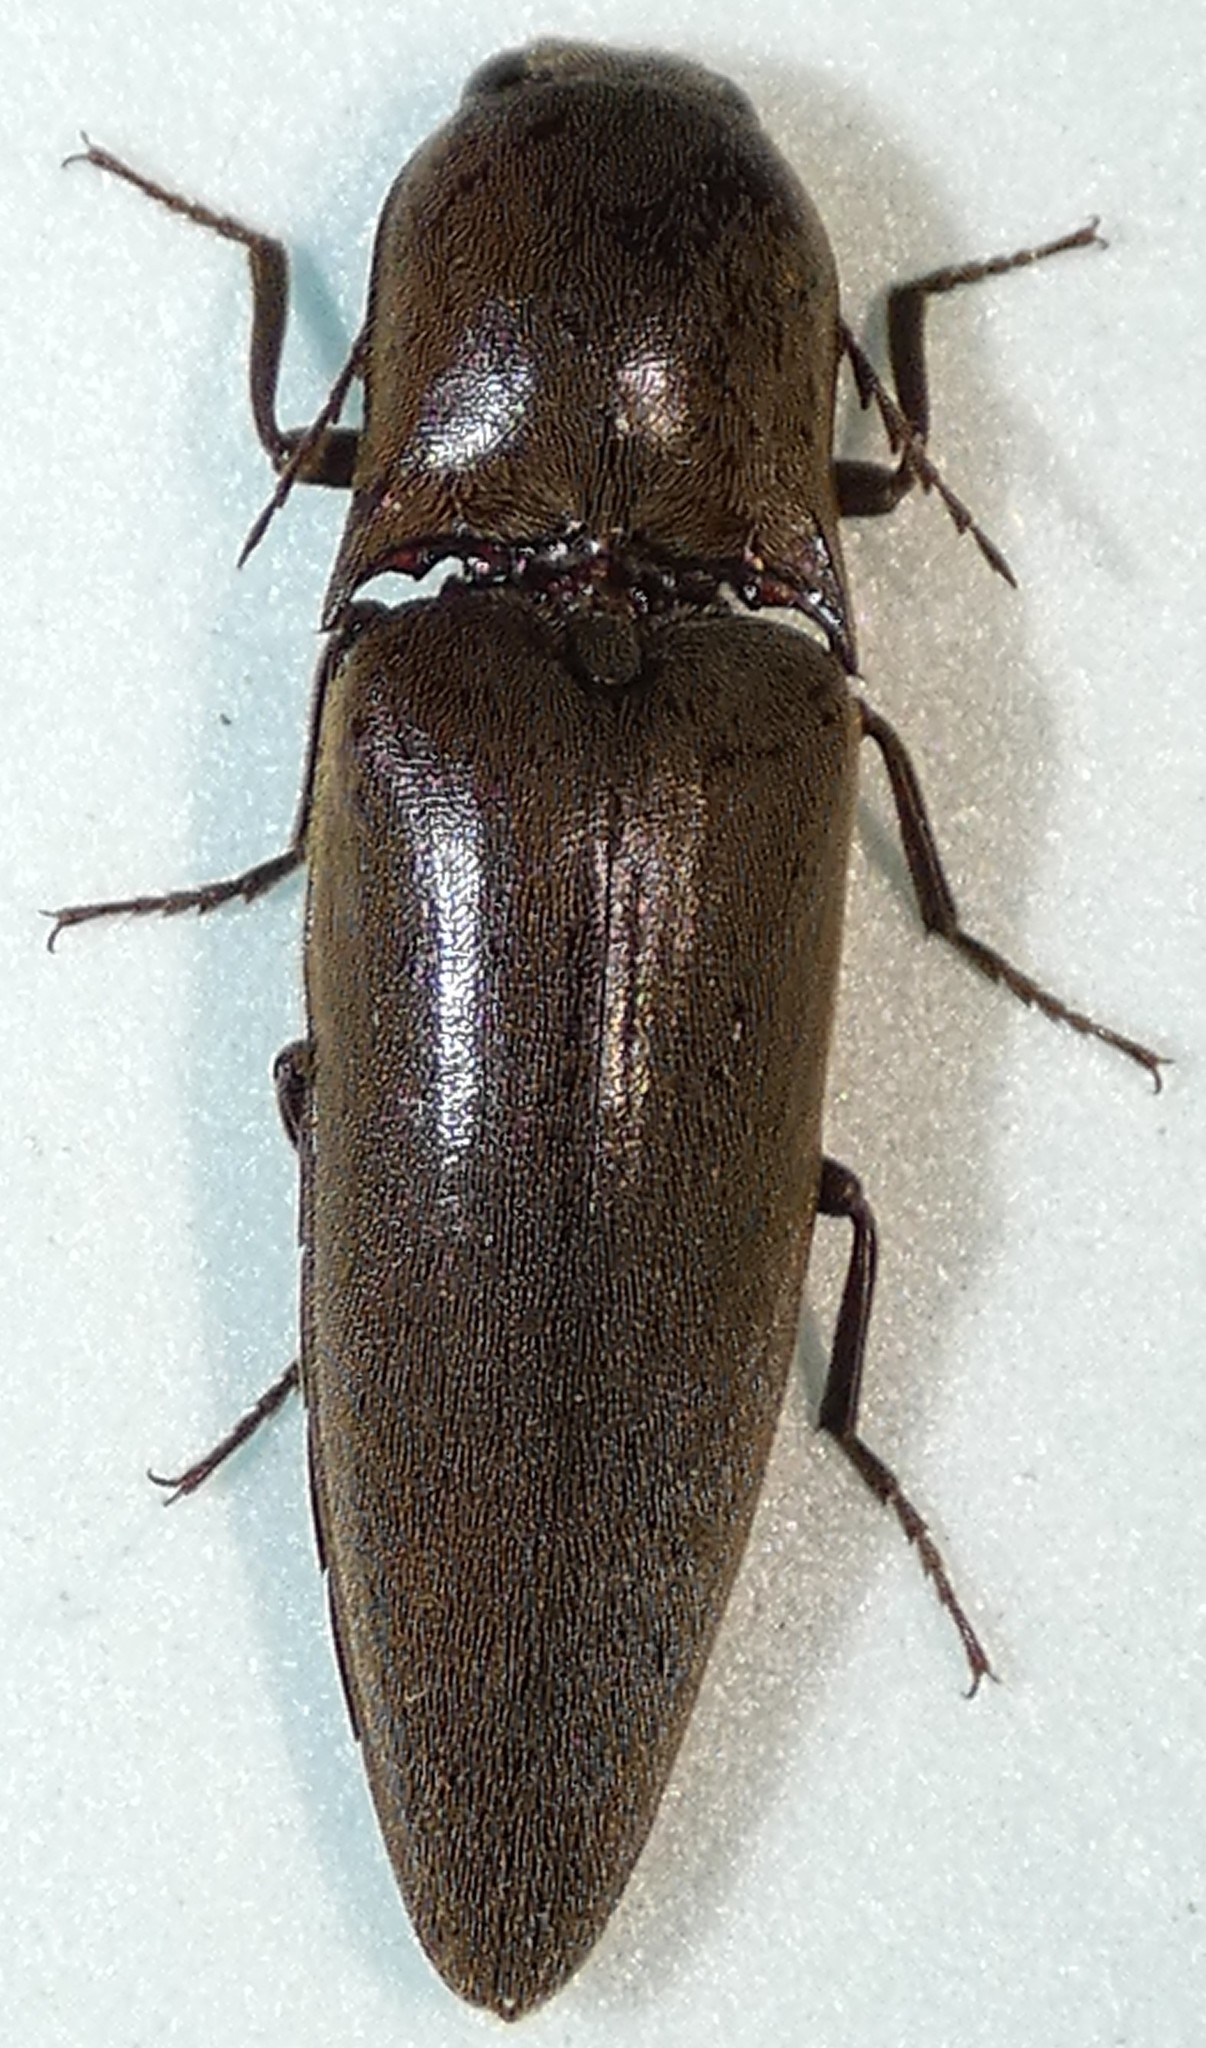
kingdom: Animalia
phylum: Arthropoda
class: Insecta
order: Coleoptera
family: Elateridae
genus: Orthostethus
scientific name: Orthostethus infuscatus
